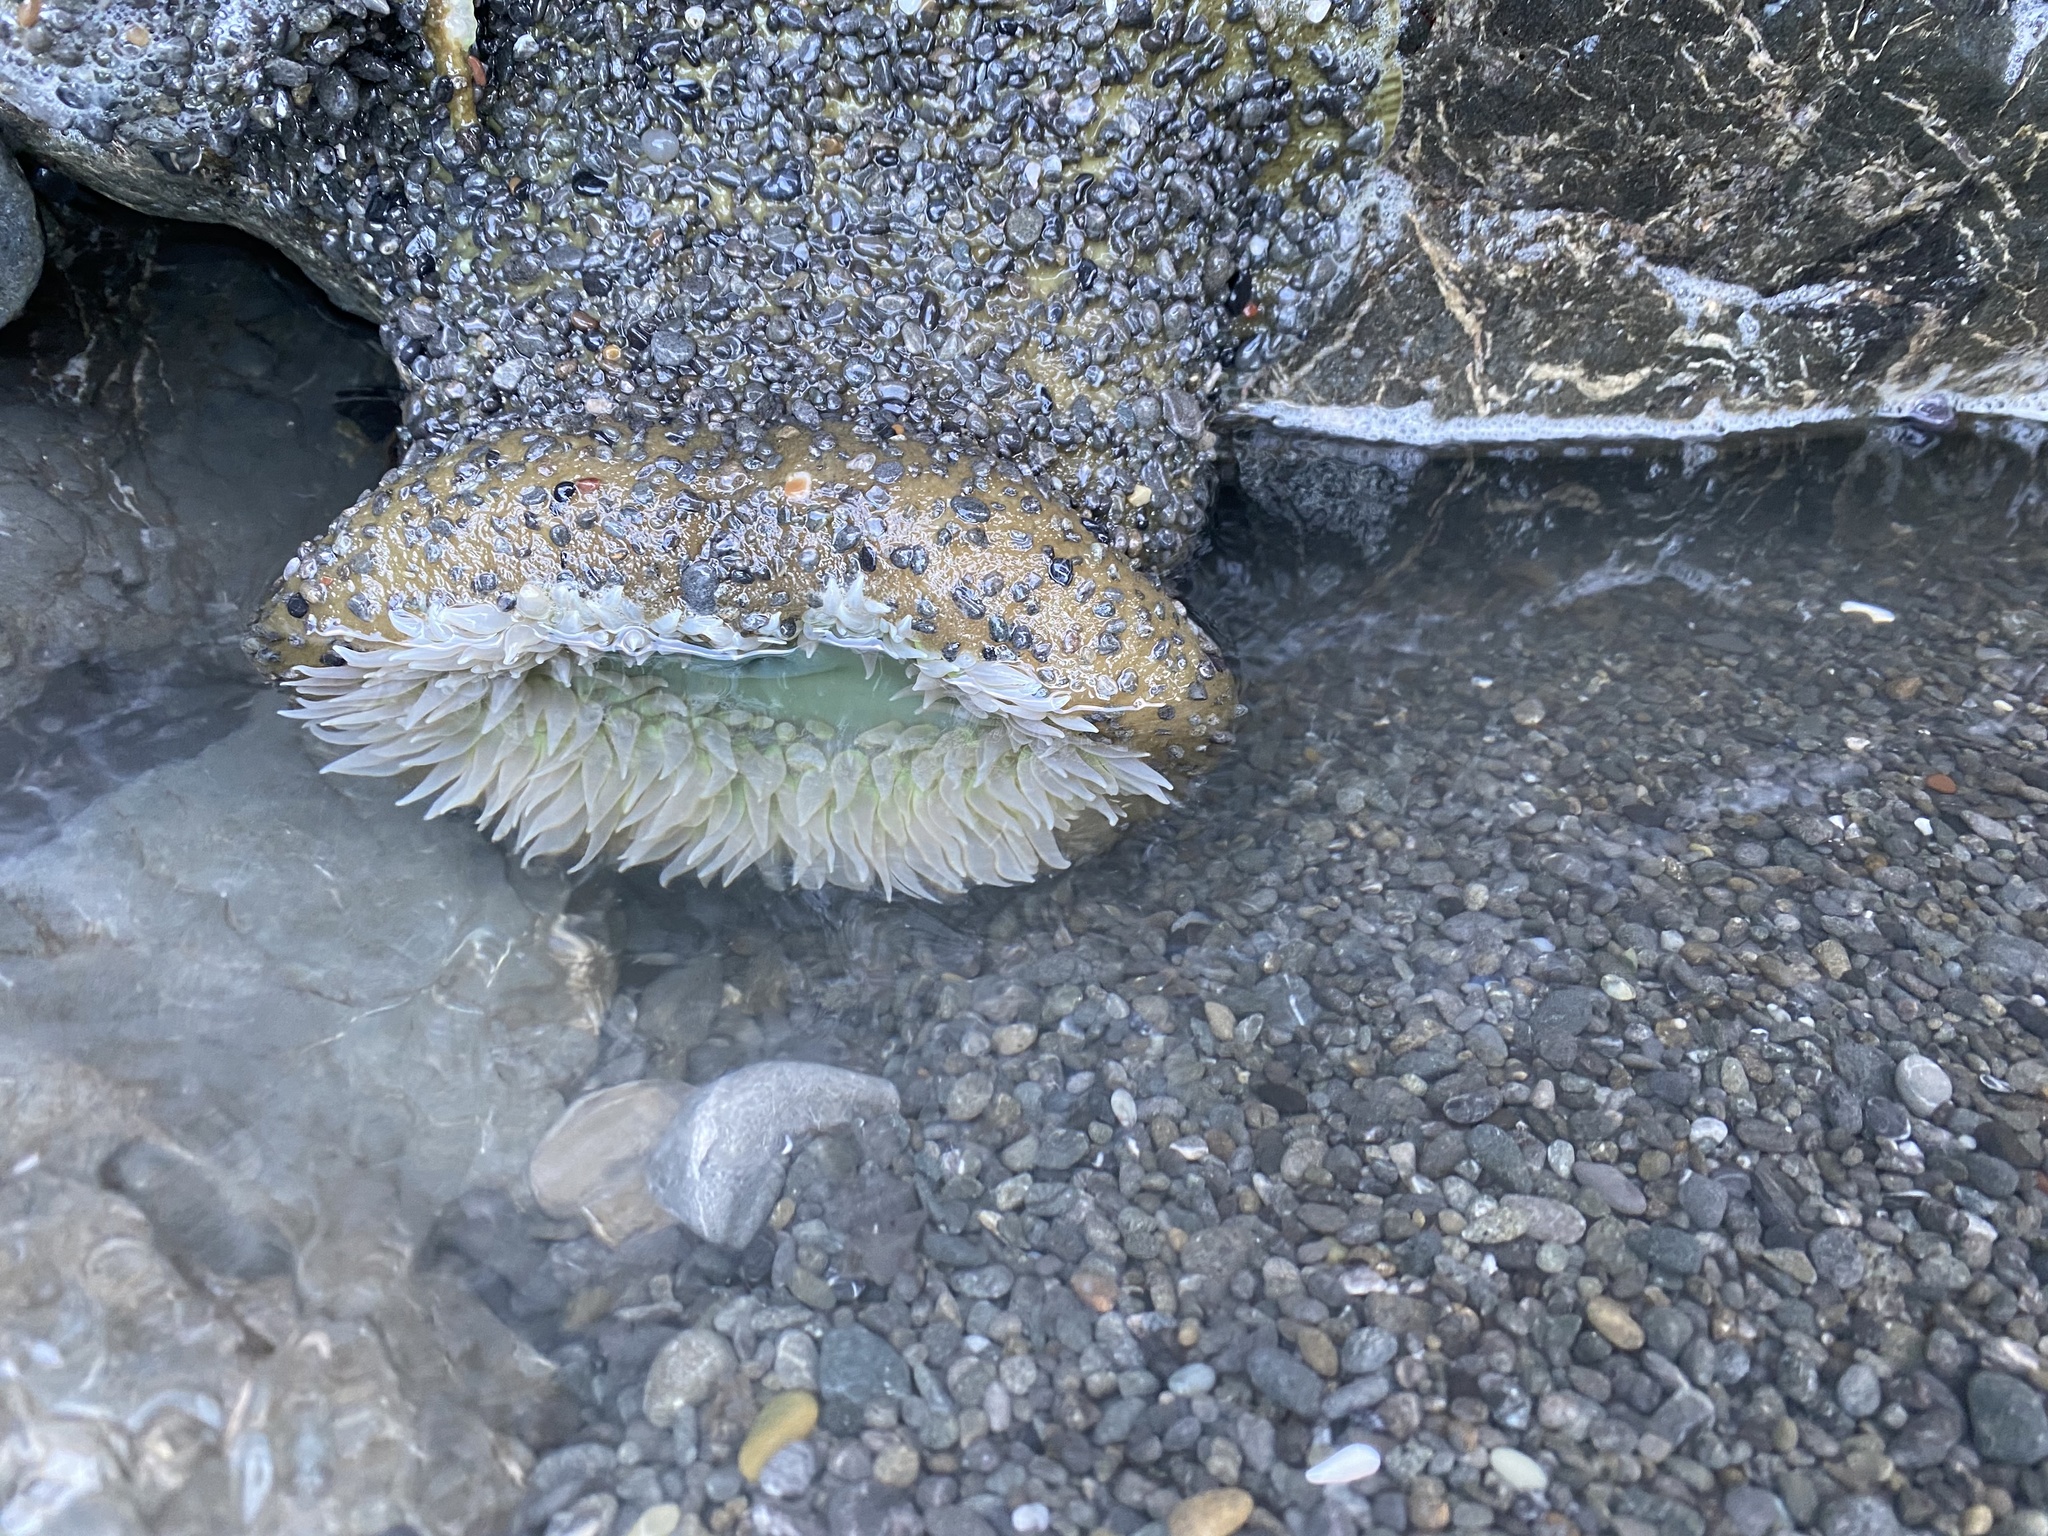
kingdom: Animalia
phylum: Cnidaria
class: Anthozoa
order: Actiniaria
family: Actiniidae
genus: Anthopleura
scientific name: Anthopleura xanthogrammica
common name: Giant green anemone
